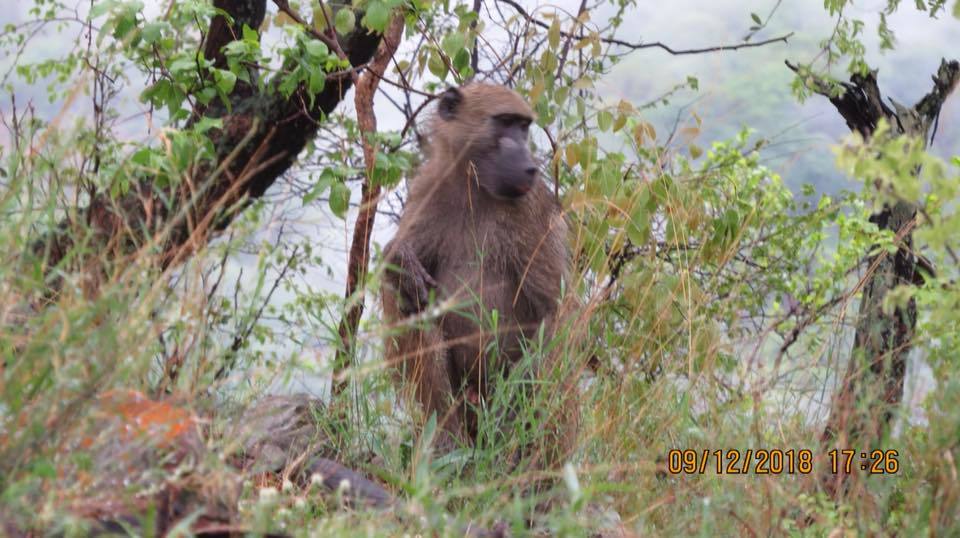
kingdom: Animalia
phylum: Chordata
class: Mammalia
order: Primates
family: Cercopithecidae
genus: Papio
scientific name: Papio ursinus
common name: Chacma baboon
